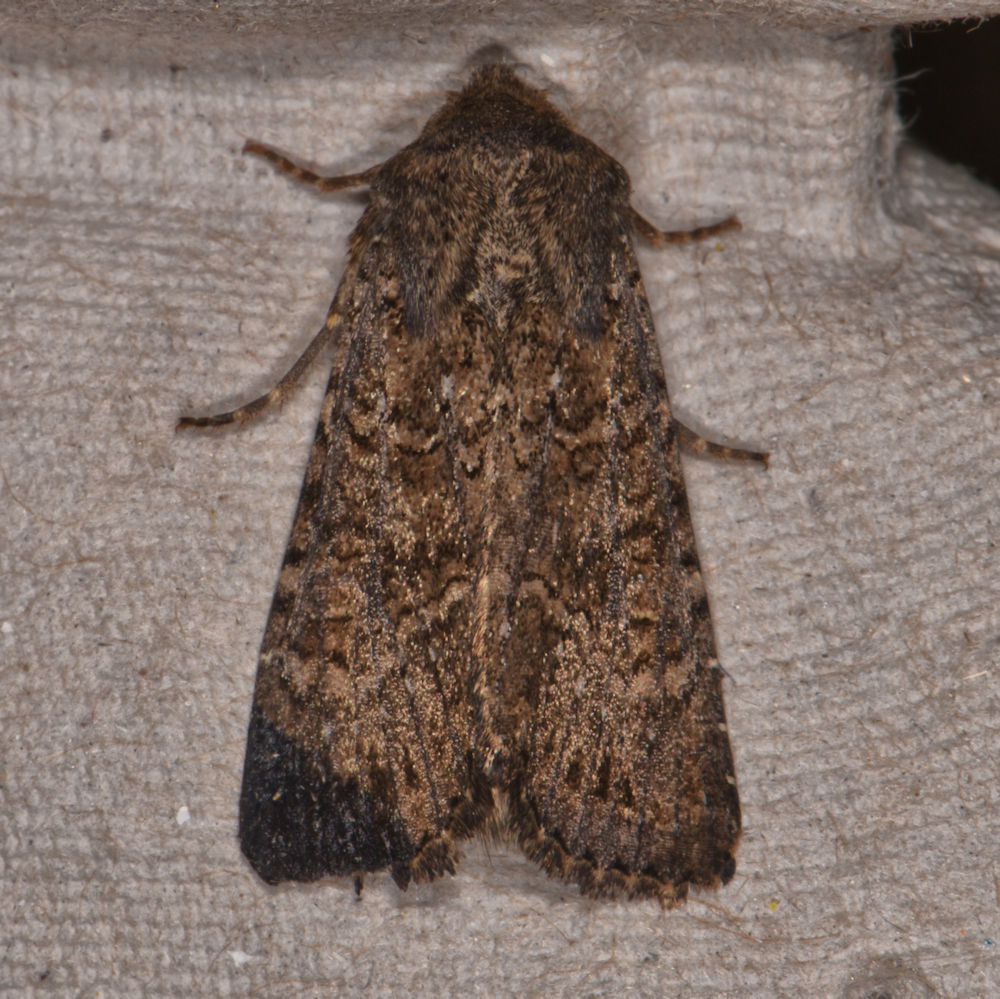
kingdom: Animalia
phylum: Arthropoda
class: Insecta
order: Lepidoptera
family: Noctuidae
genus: Apamea
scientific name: Apamea devastator
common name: Glassy cutworm
